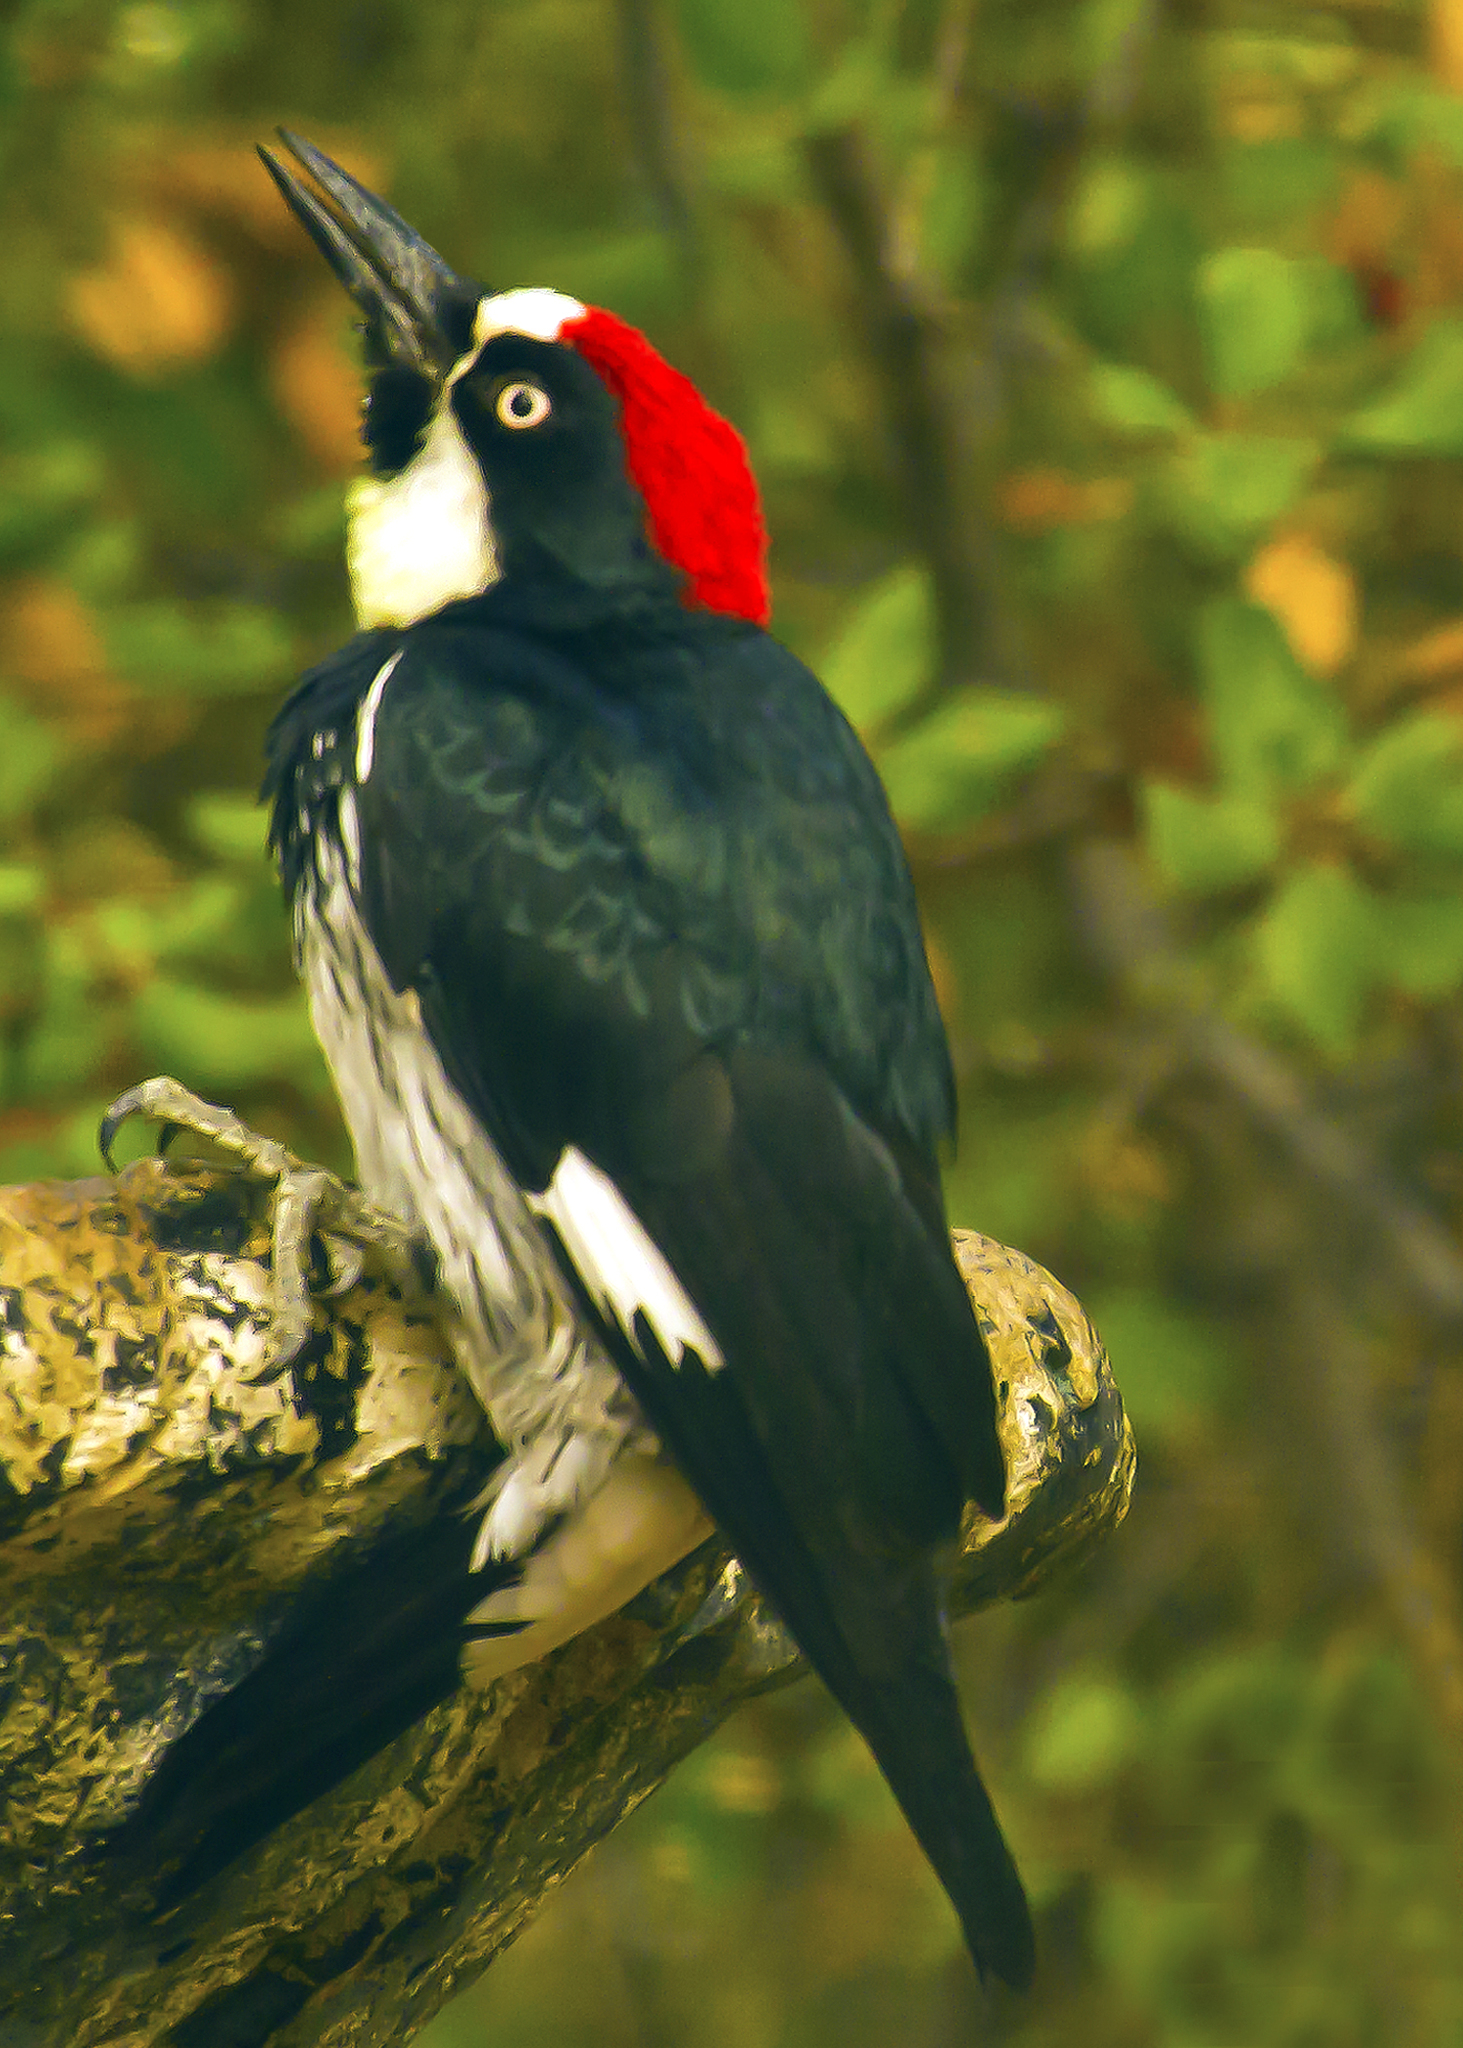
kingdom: Animalia
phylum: Chordata
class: Aves
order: Piciformes
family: Picidae
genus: Melanerpes
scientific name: Melanerpes formicivorus
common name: Acorn woodpecker
